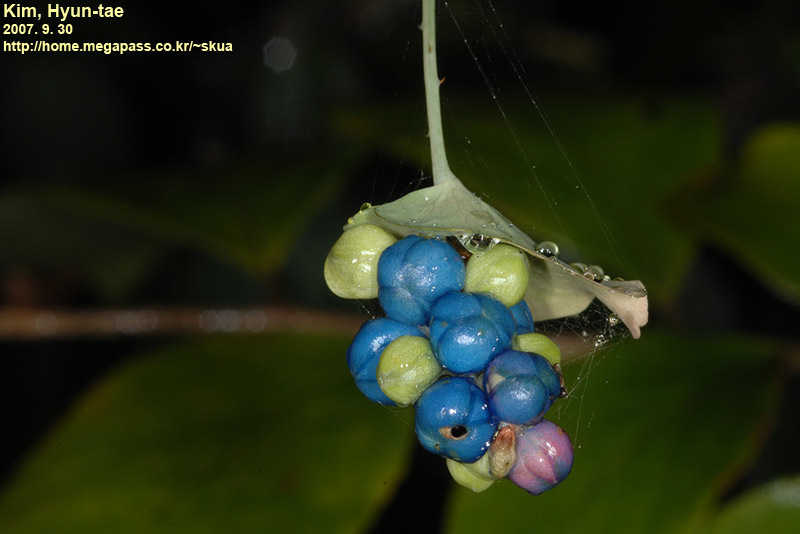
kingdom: Plantae
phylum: Tracheophyta
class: Magnoliopsida
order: Caryophyllales
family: Polygonaceae
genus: Persicaria
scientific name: Persicaria perfoliata
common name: Asiatic tearthumb
